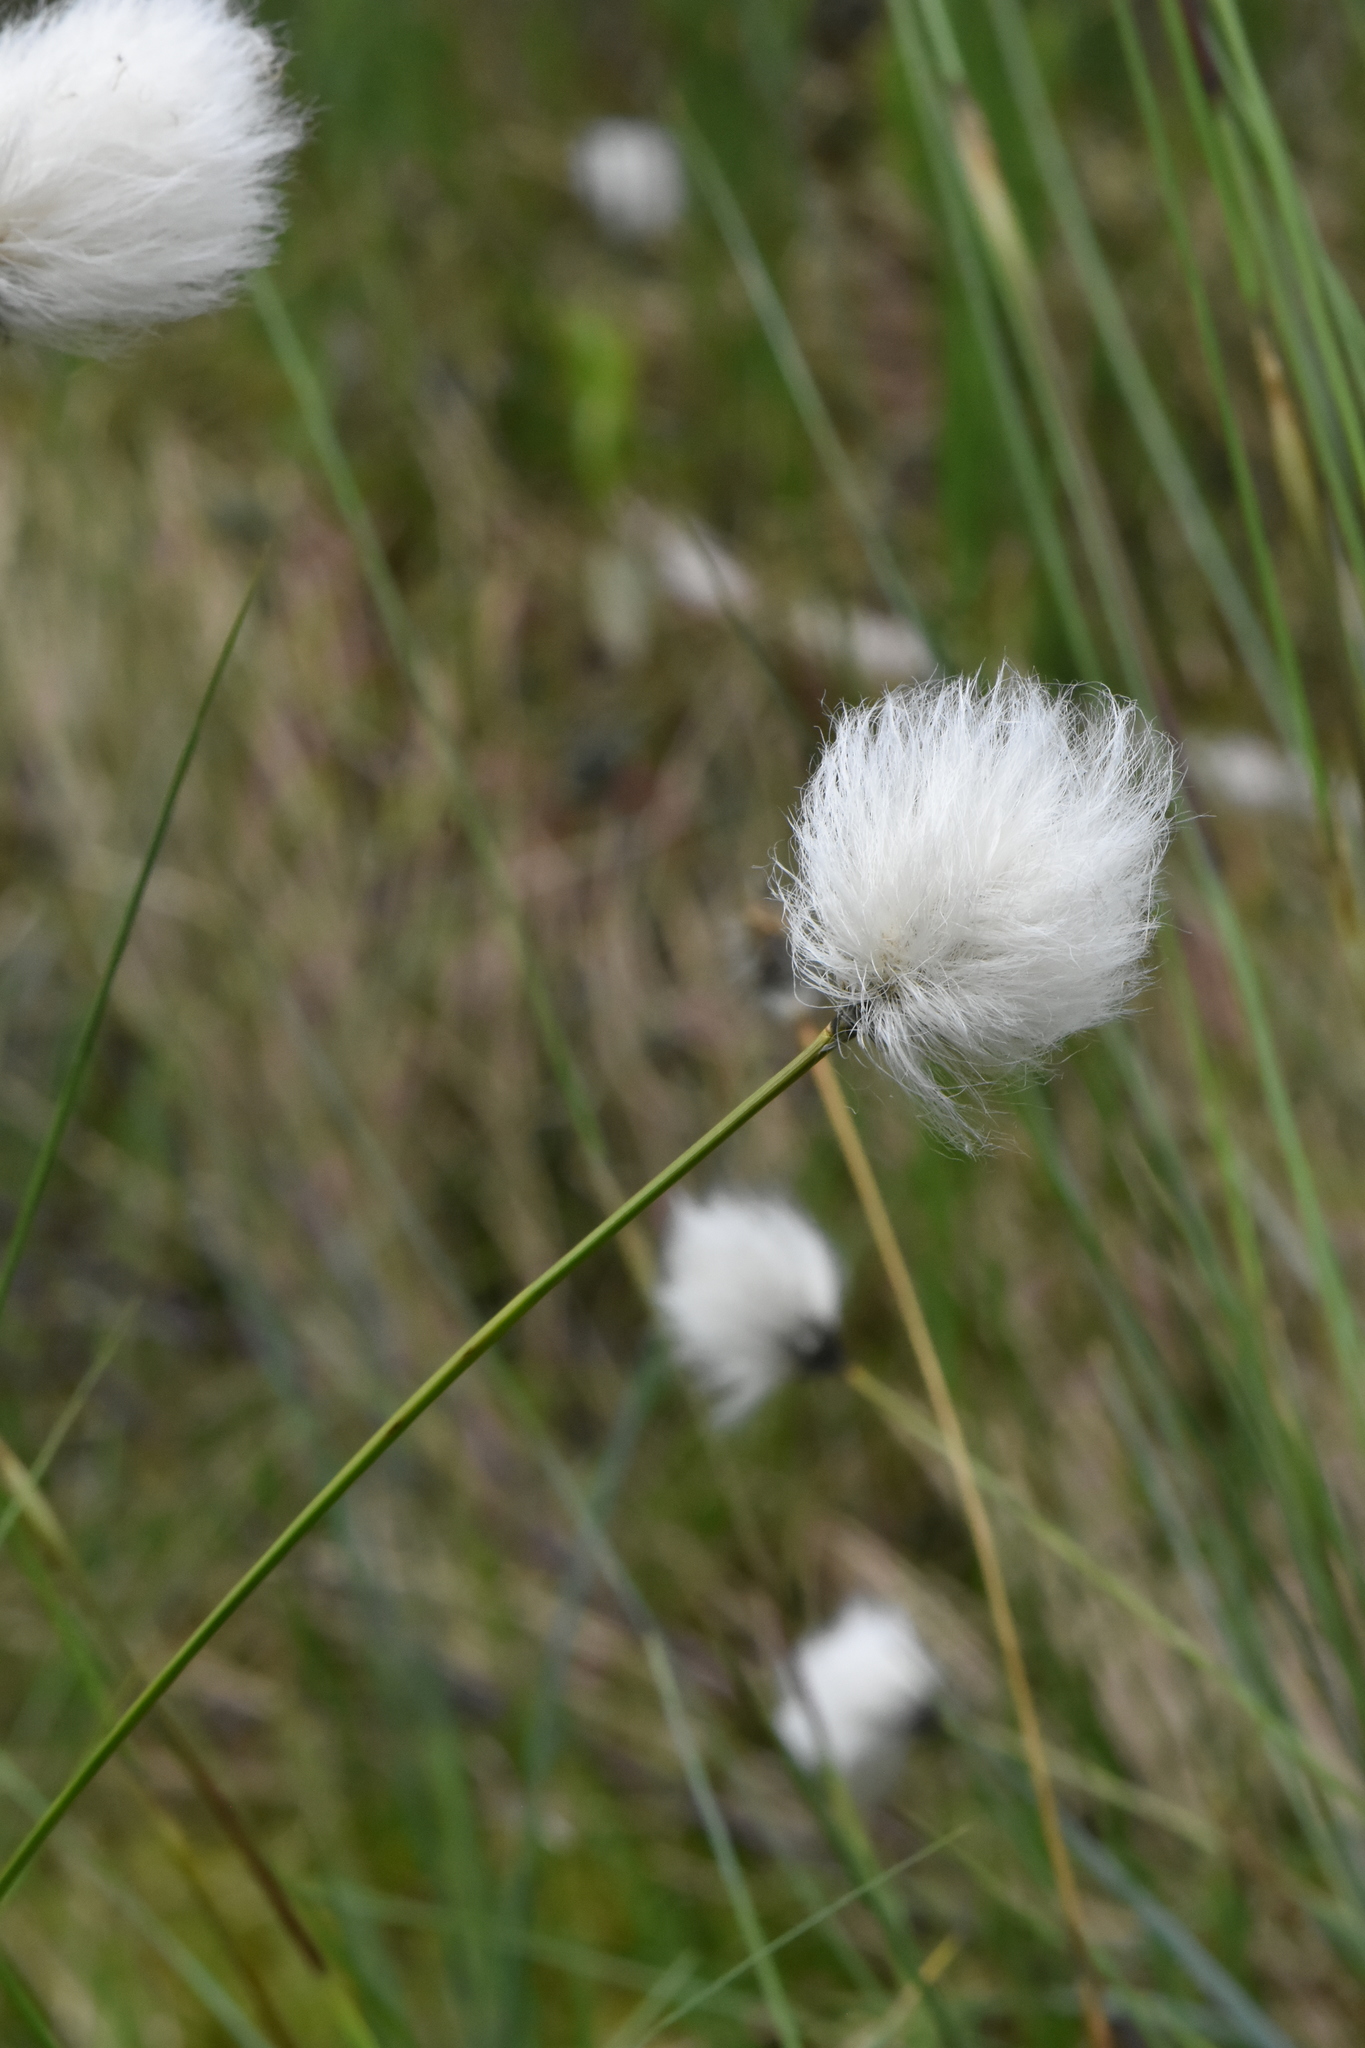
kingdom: Plantae
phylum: Tracheophyta
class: Liliopsida
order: Poales
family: Cyperaceae
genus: Eriophorum
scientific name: Eriophorum vaginatum
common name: Hare's-tail cottongrass
